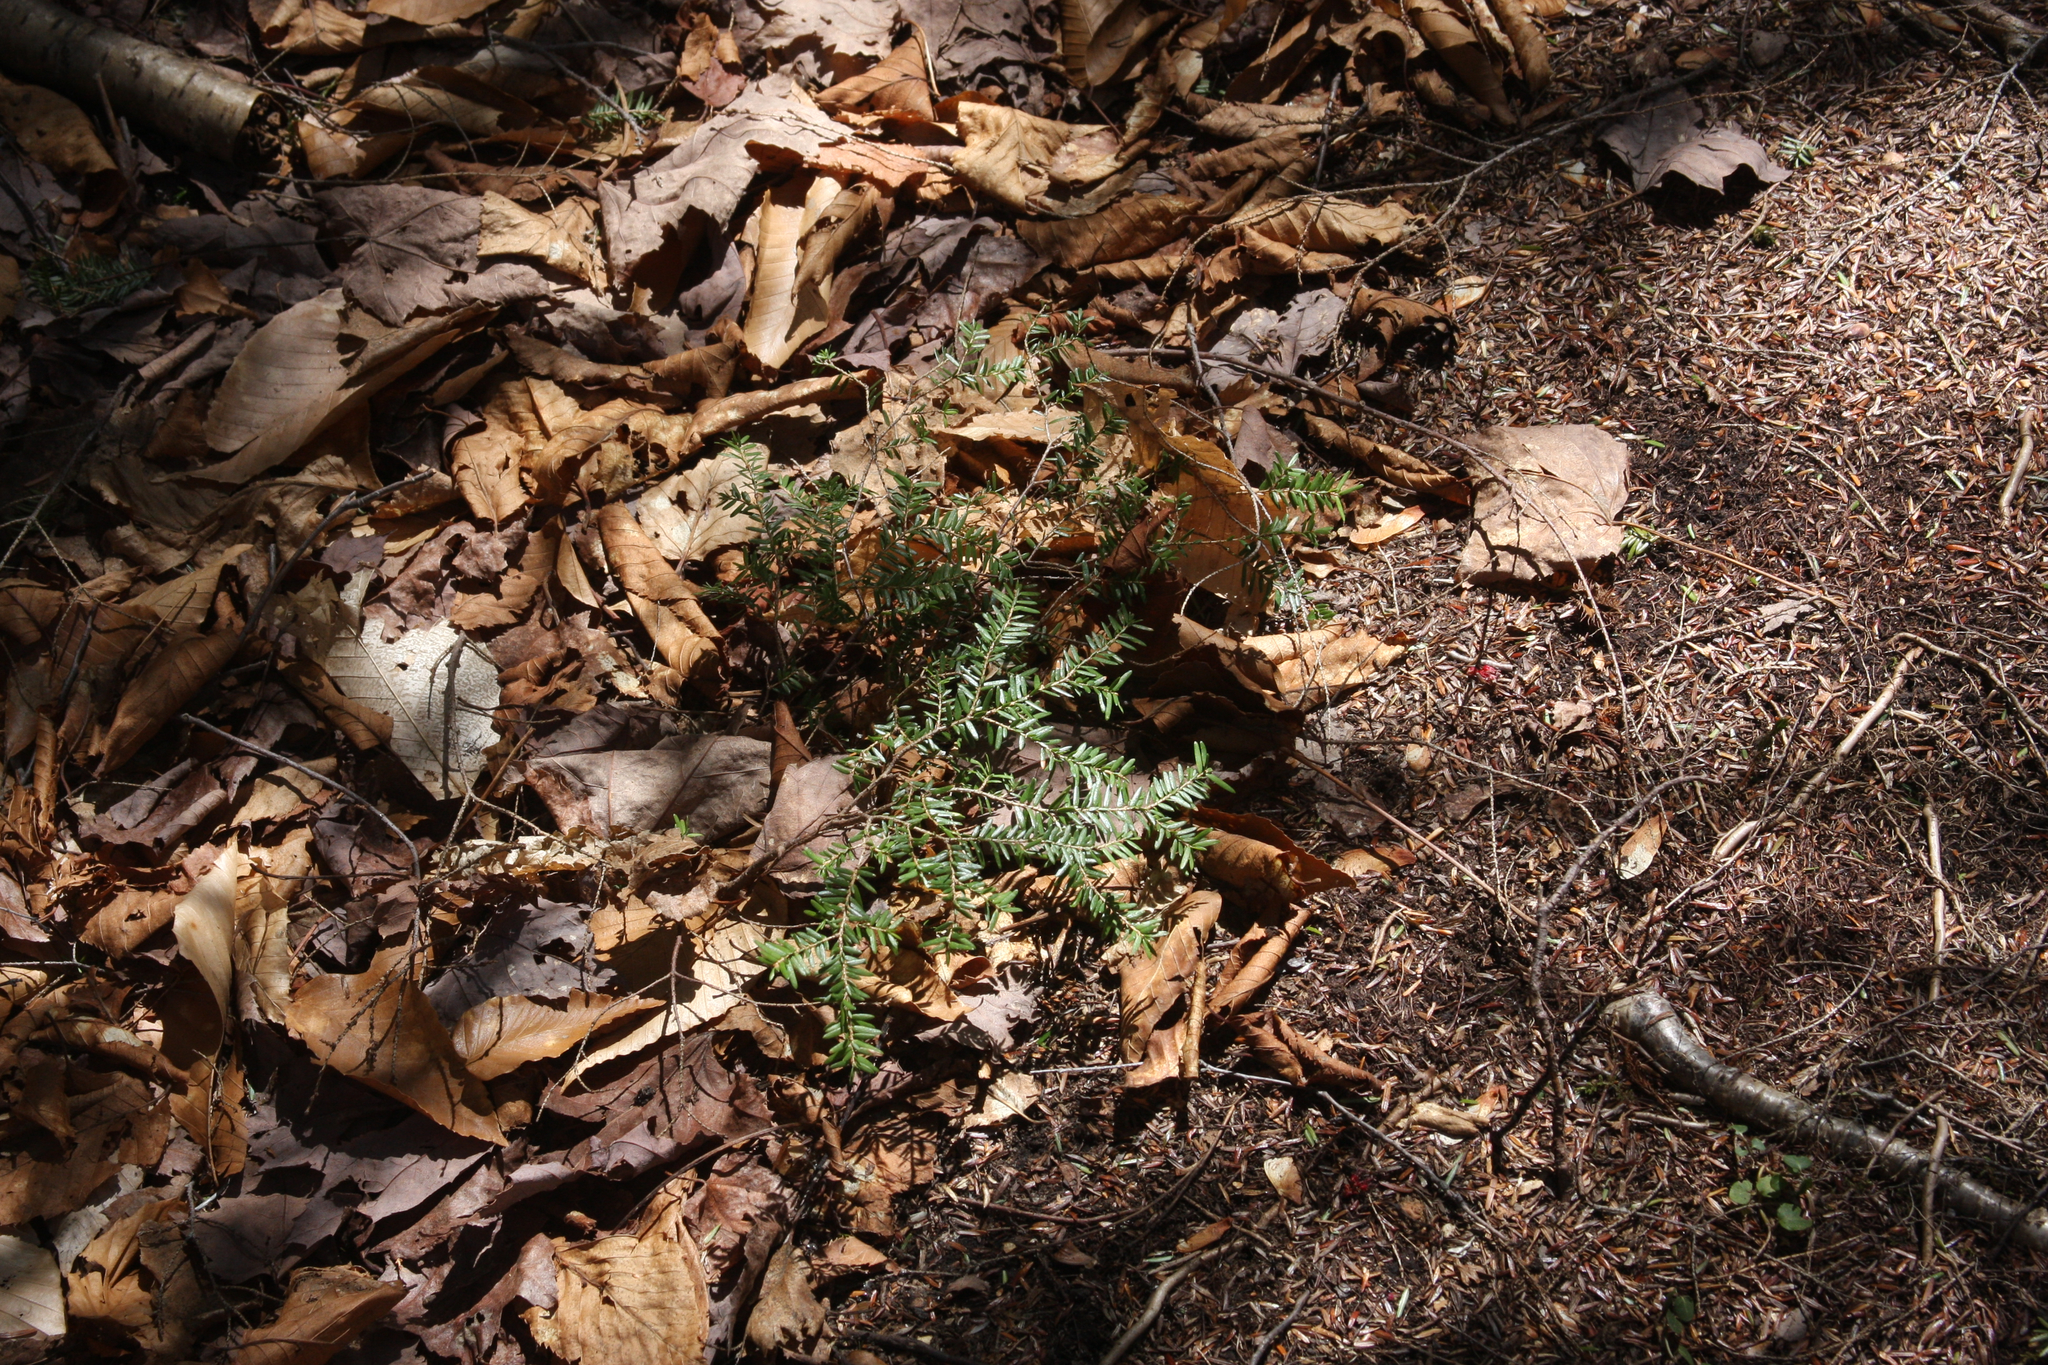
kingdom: Plantae
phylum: Tracheophyta
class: Pinopsida
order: Pinales
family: Pinaceae
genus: Tsuga
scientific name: Tsuga canadensis
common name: Eastern hemlock
